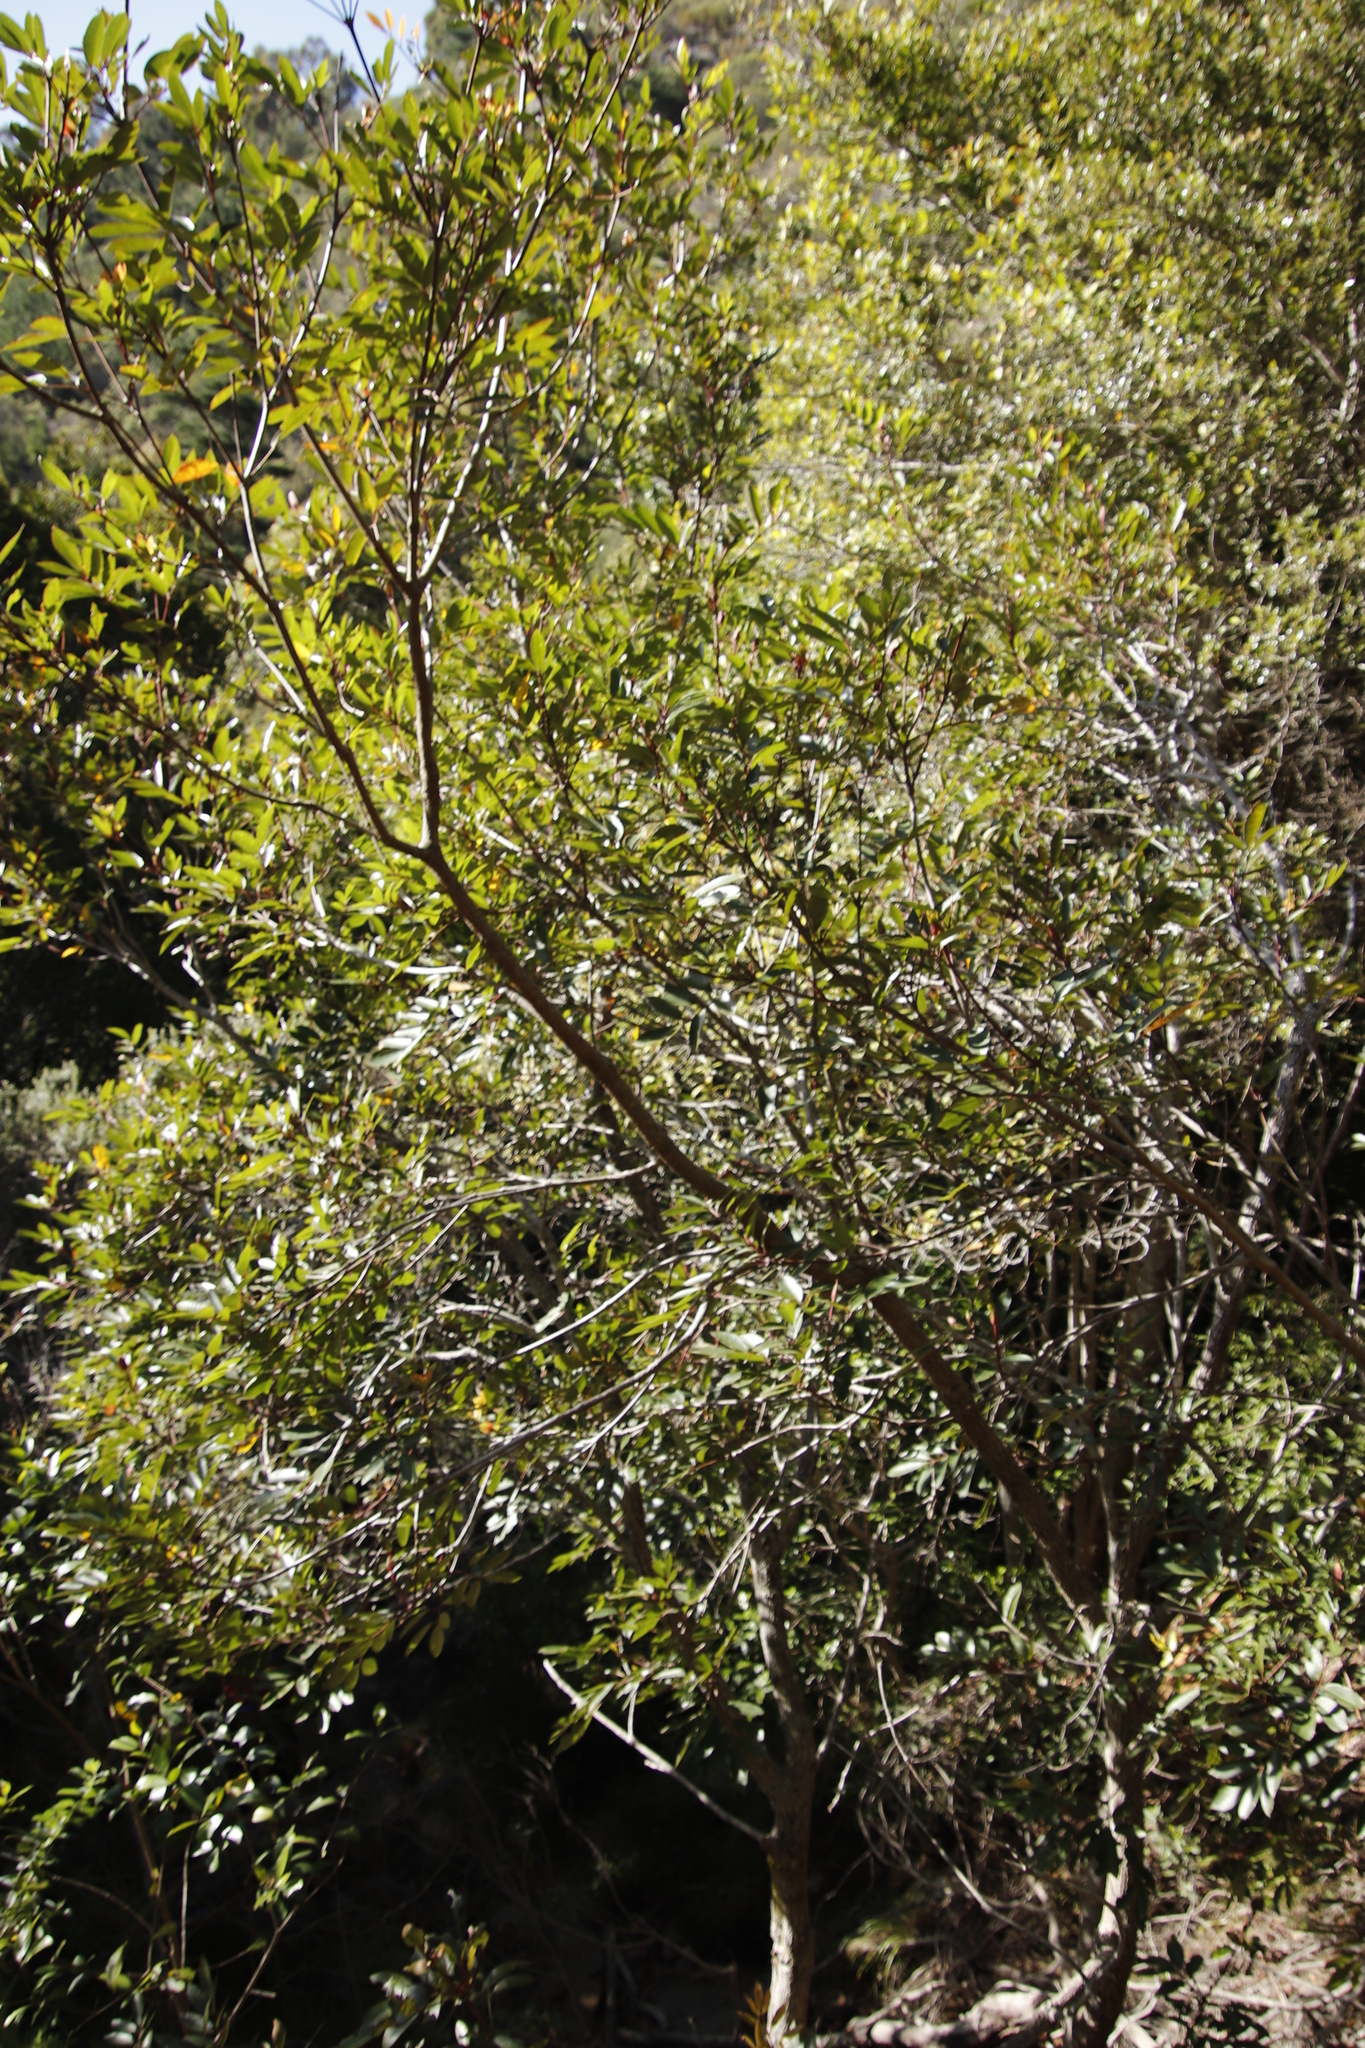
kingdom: Plantae
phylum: Tracheophyta
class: Magnoliopsida
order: Oxalidales
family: Cunoniaceae
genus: Cunonia
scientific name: Cunonia capensis
